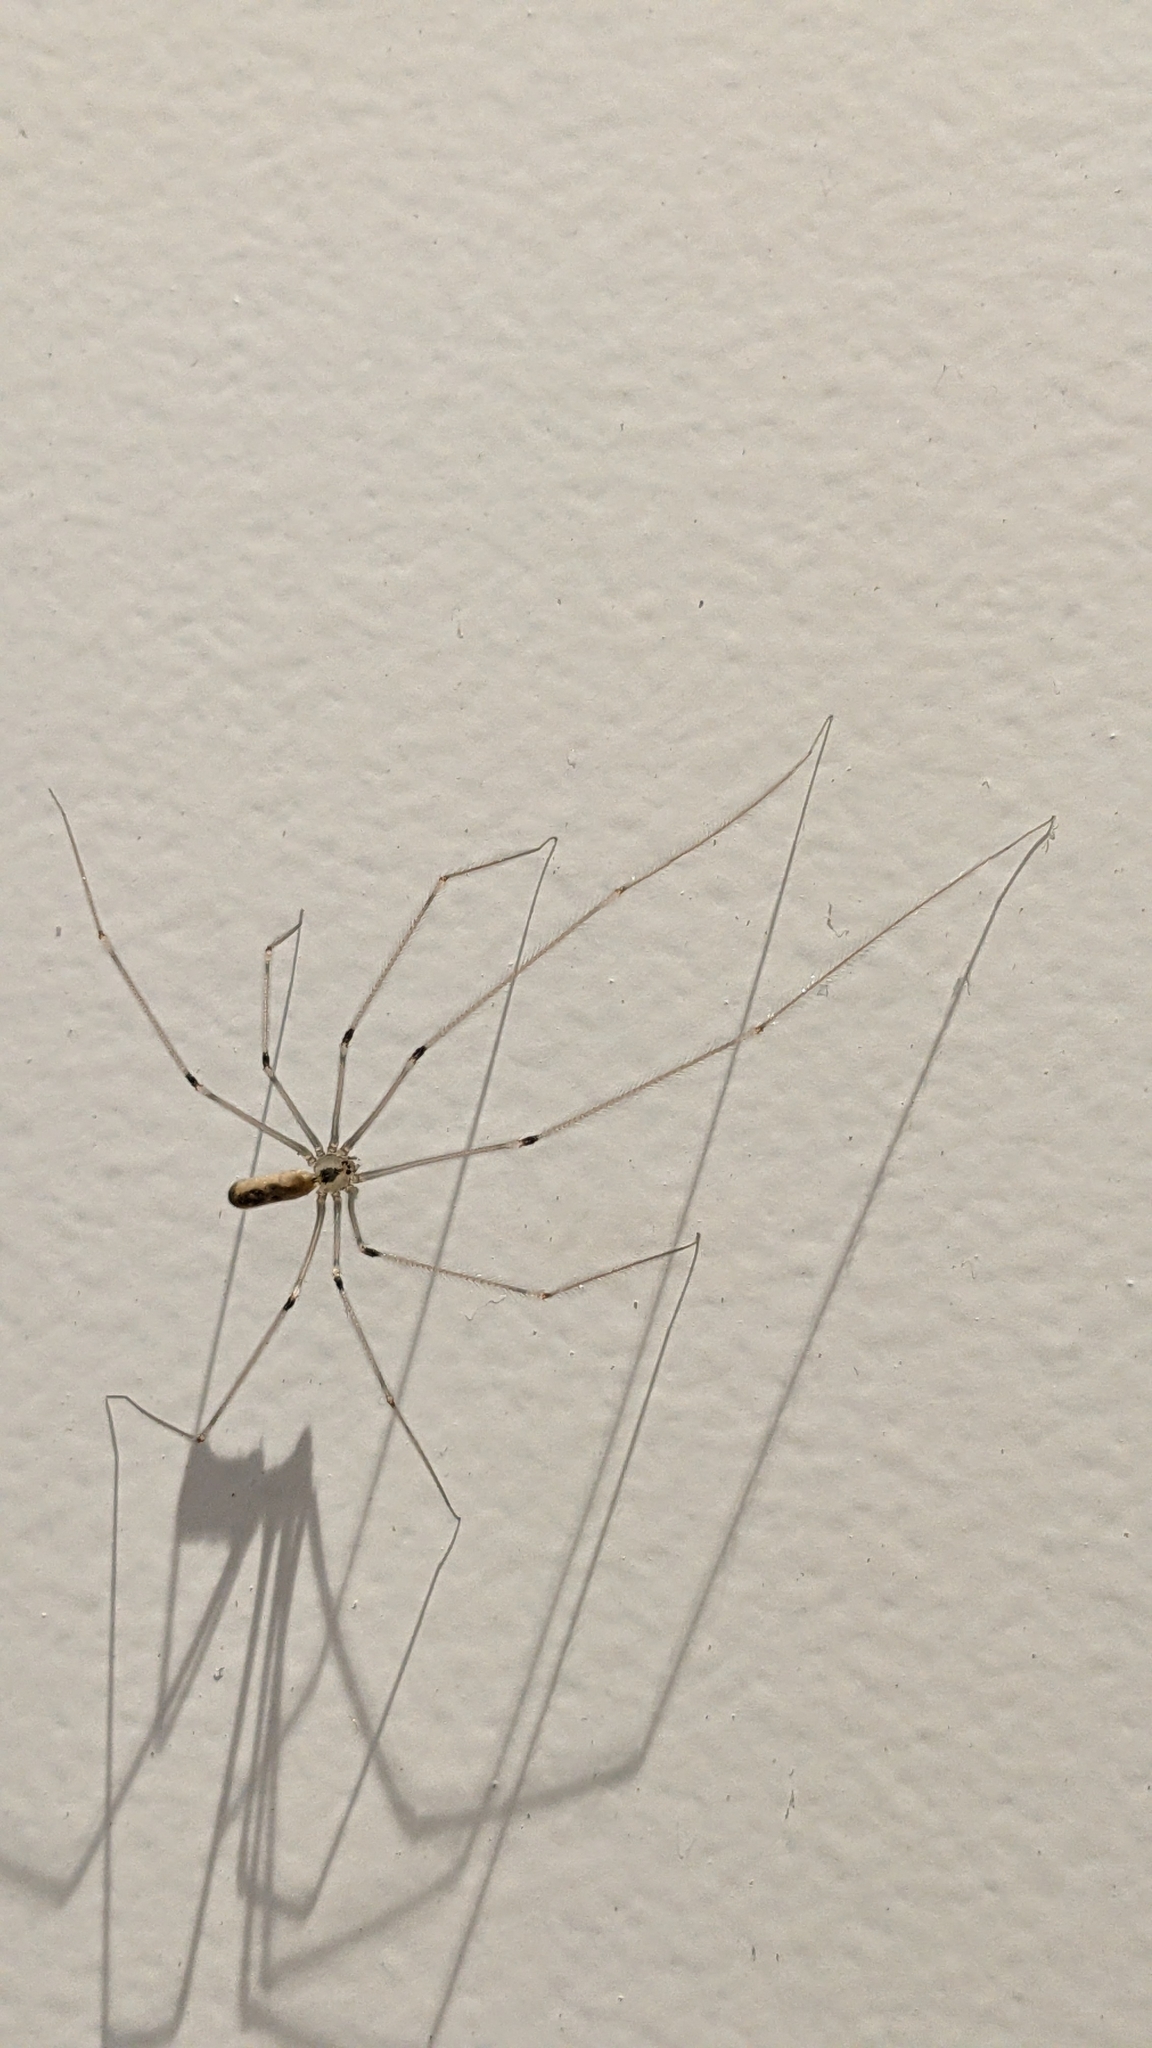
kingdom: Animalia
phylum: Arthropoda
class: Arachnida
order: Araneae
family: Pholcidae
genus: Pholcus
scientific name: Pholcus phalangioides
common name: Longbodied cellar spider
